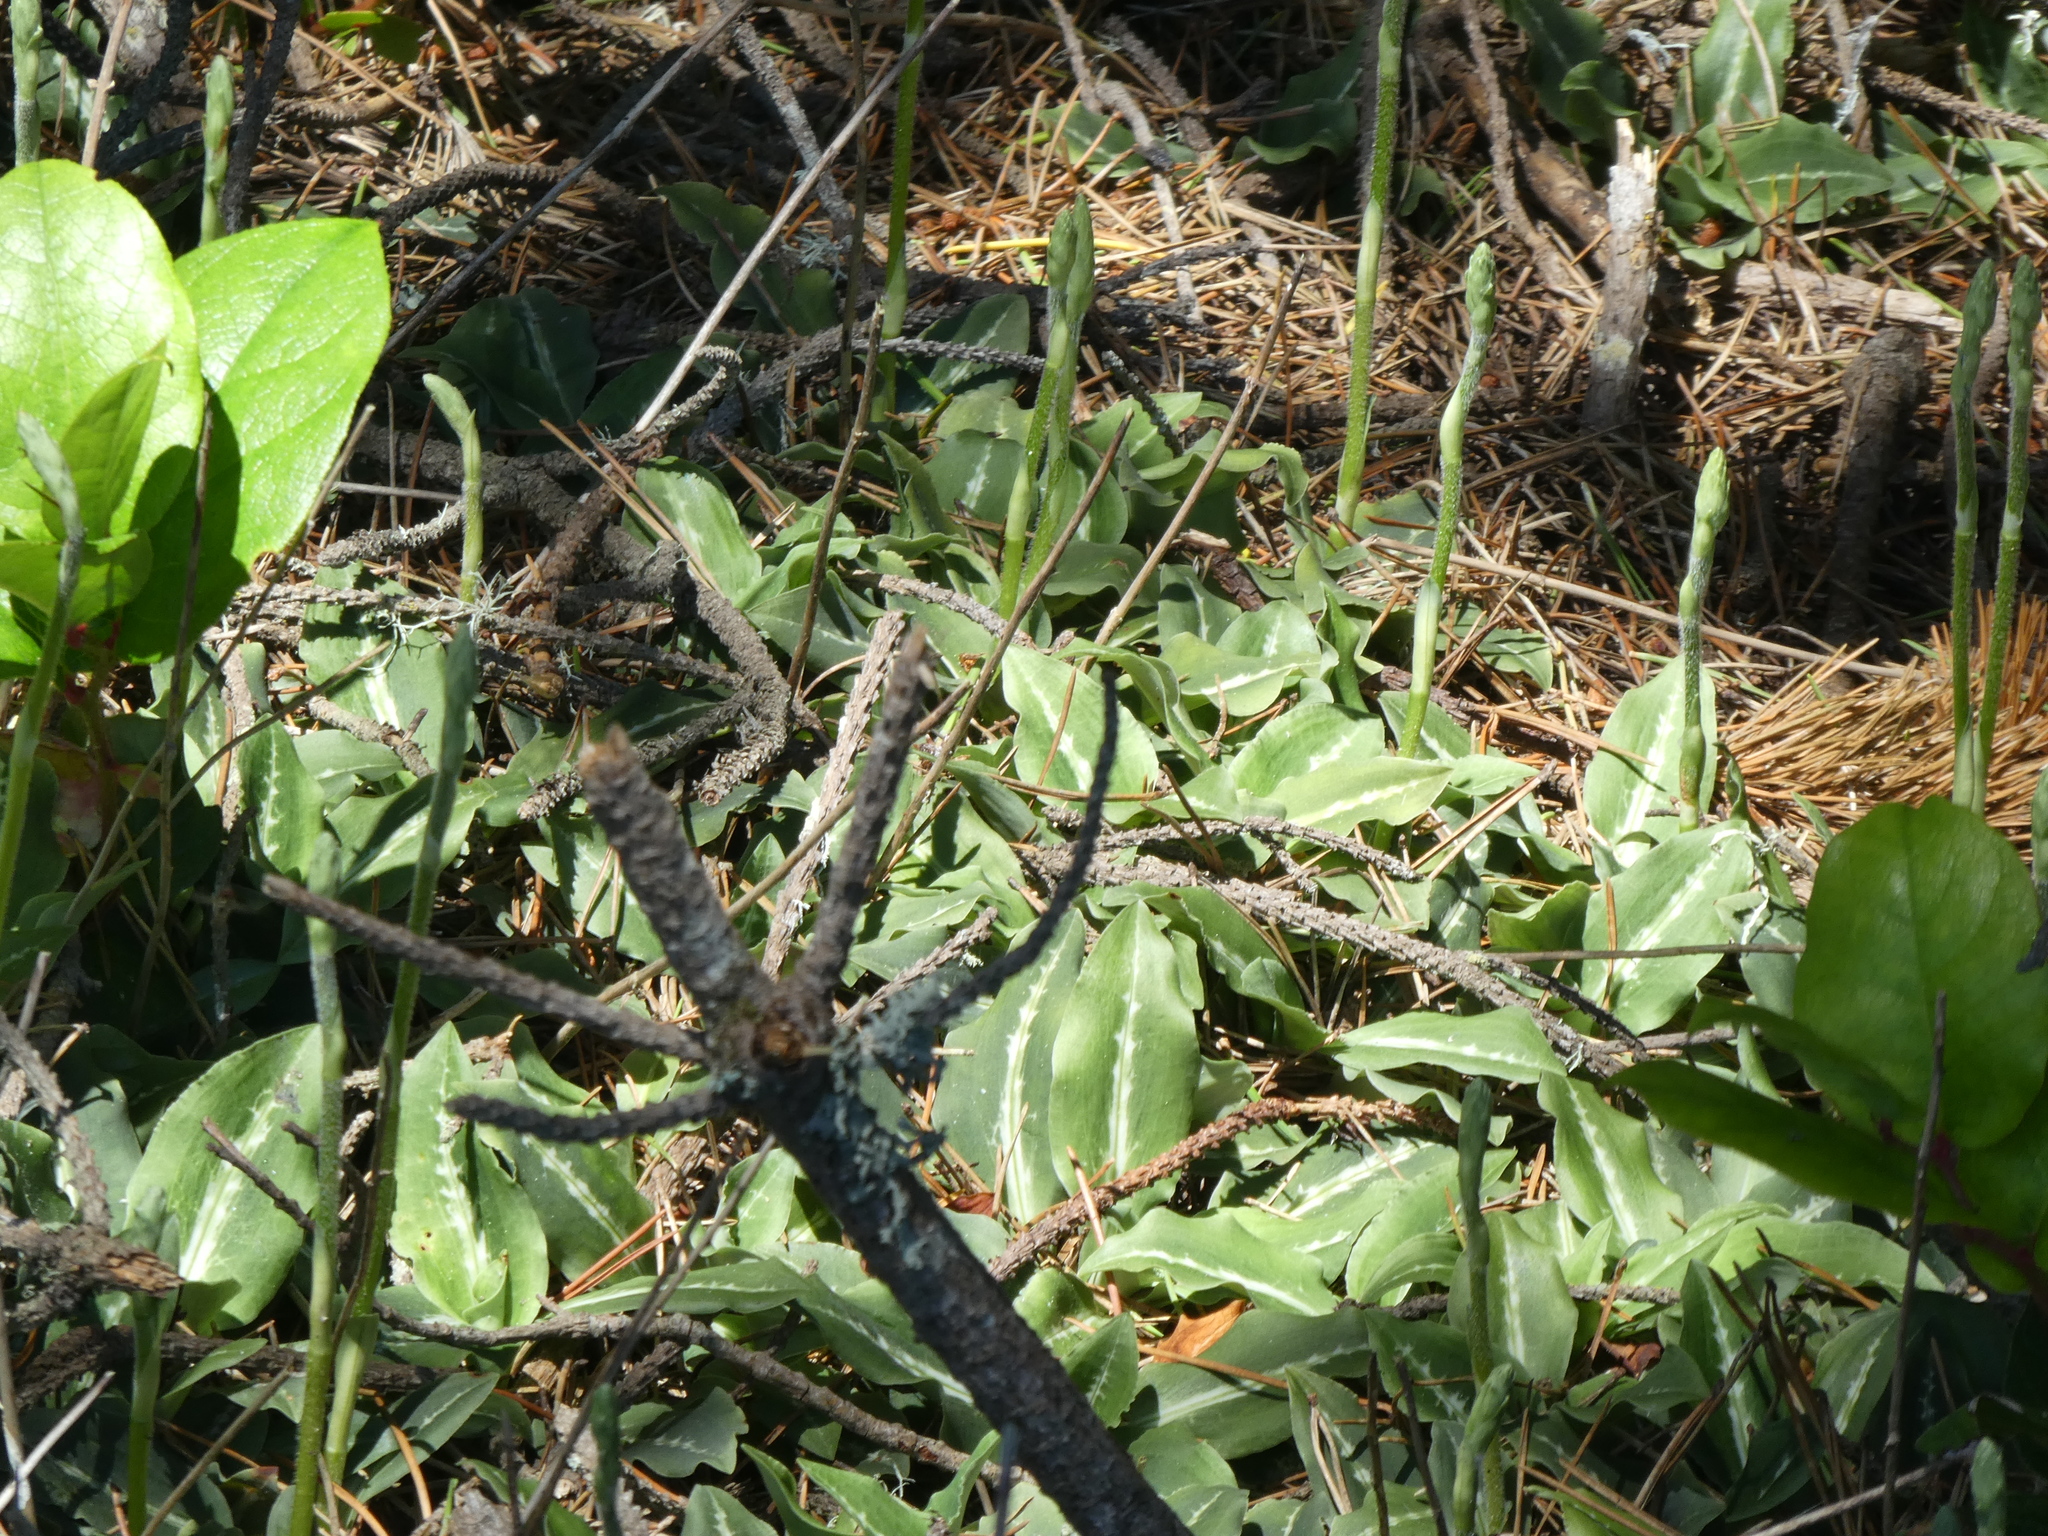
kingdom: Plantae
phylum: Tracheophyta
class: Liliopsida
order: Asparagales
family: Orchidaceae
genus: Goodyera
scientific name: Goodyera oblongifolia
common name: Giant rattlesnake-plantain
